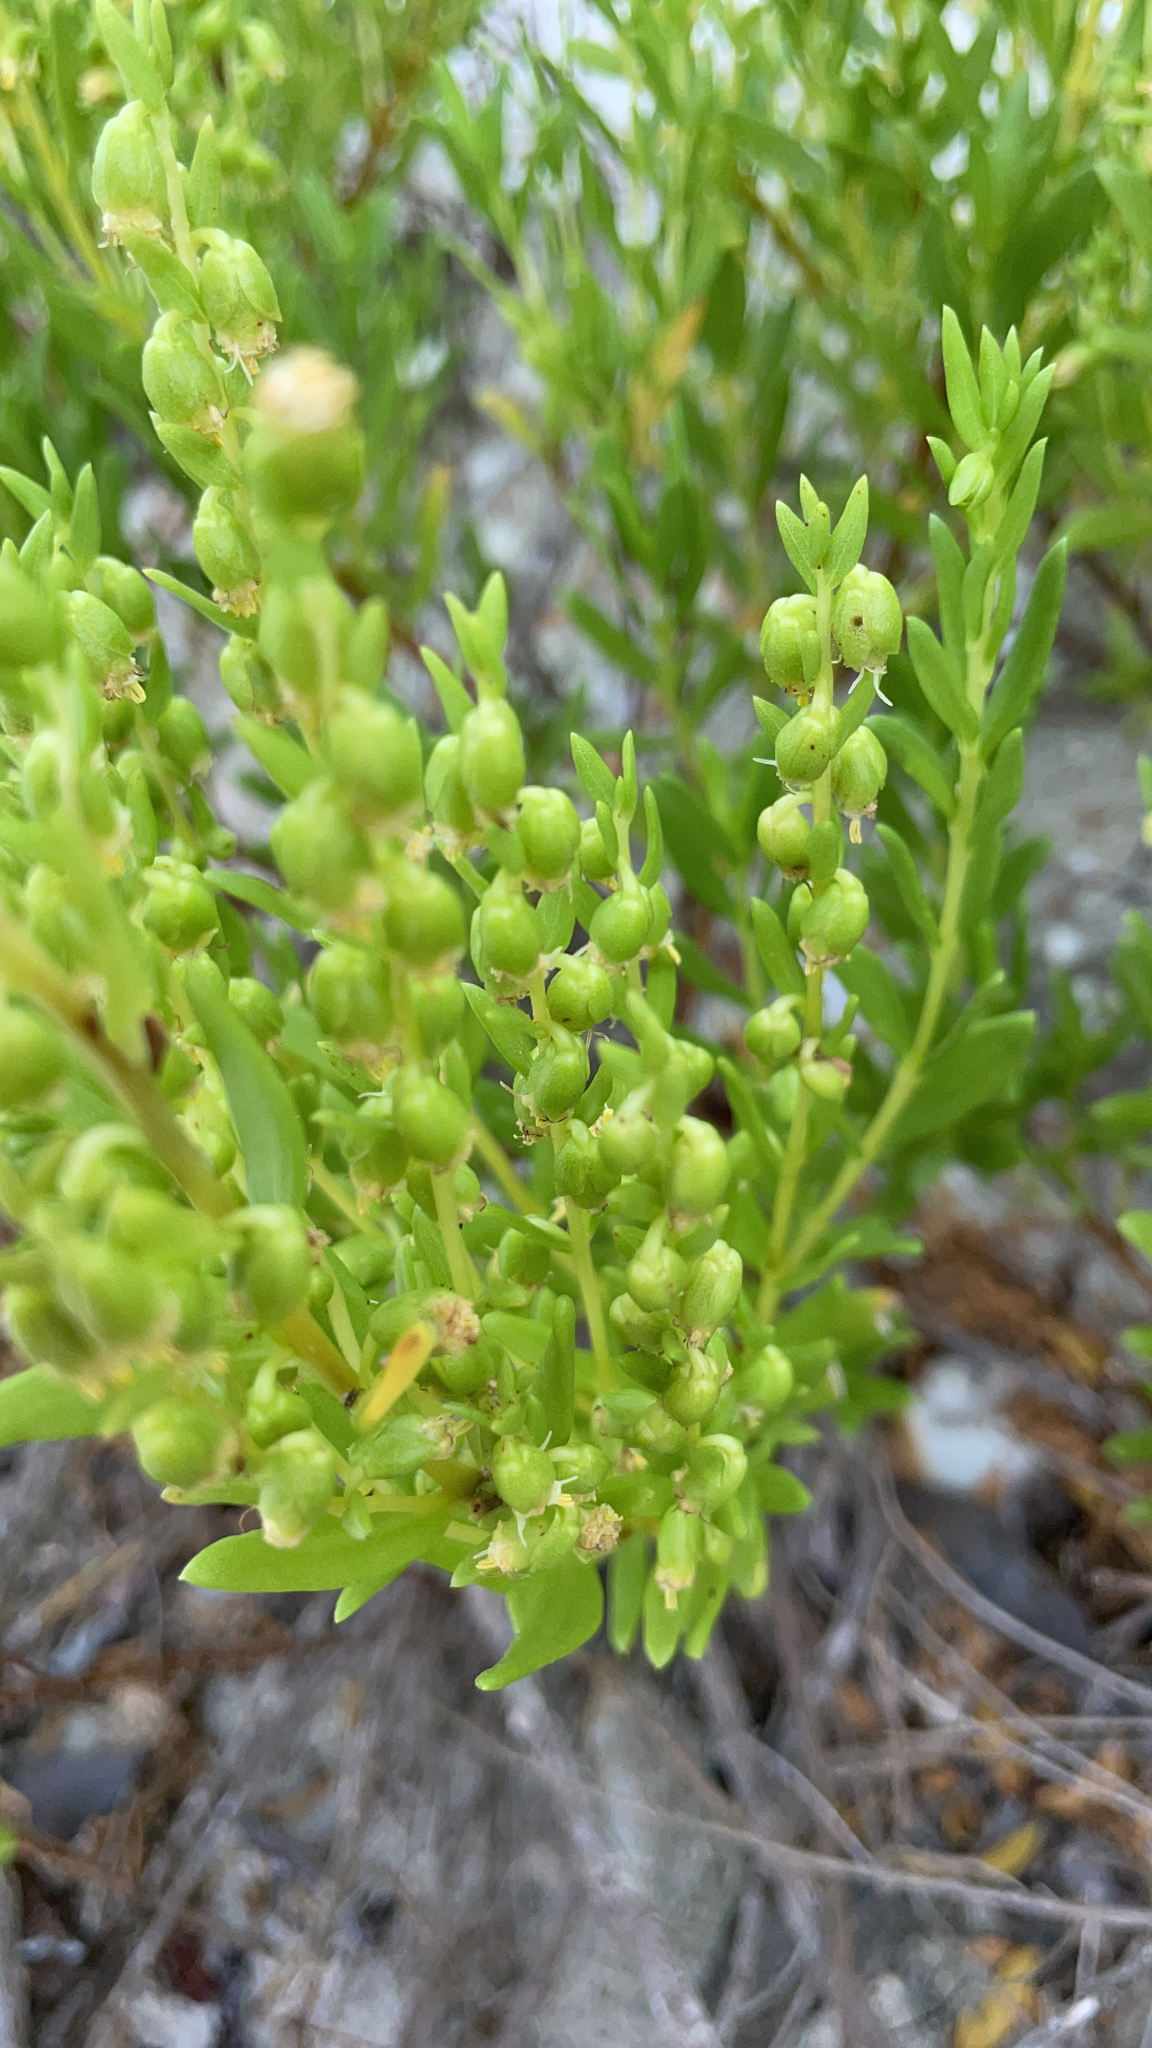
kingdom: Plantae
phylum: Tracheophyta
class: Magnoliopsida
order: Asterales
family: Asteraceae
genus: Iva
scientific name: Iva imbricata
